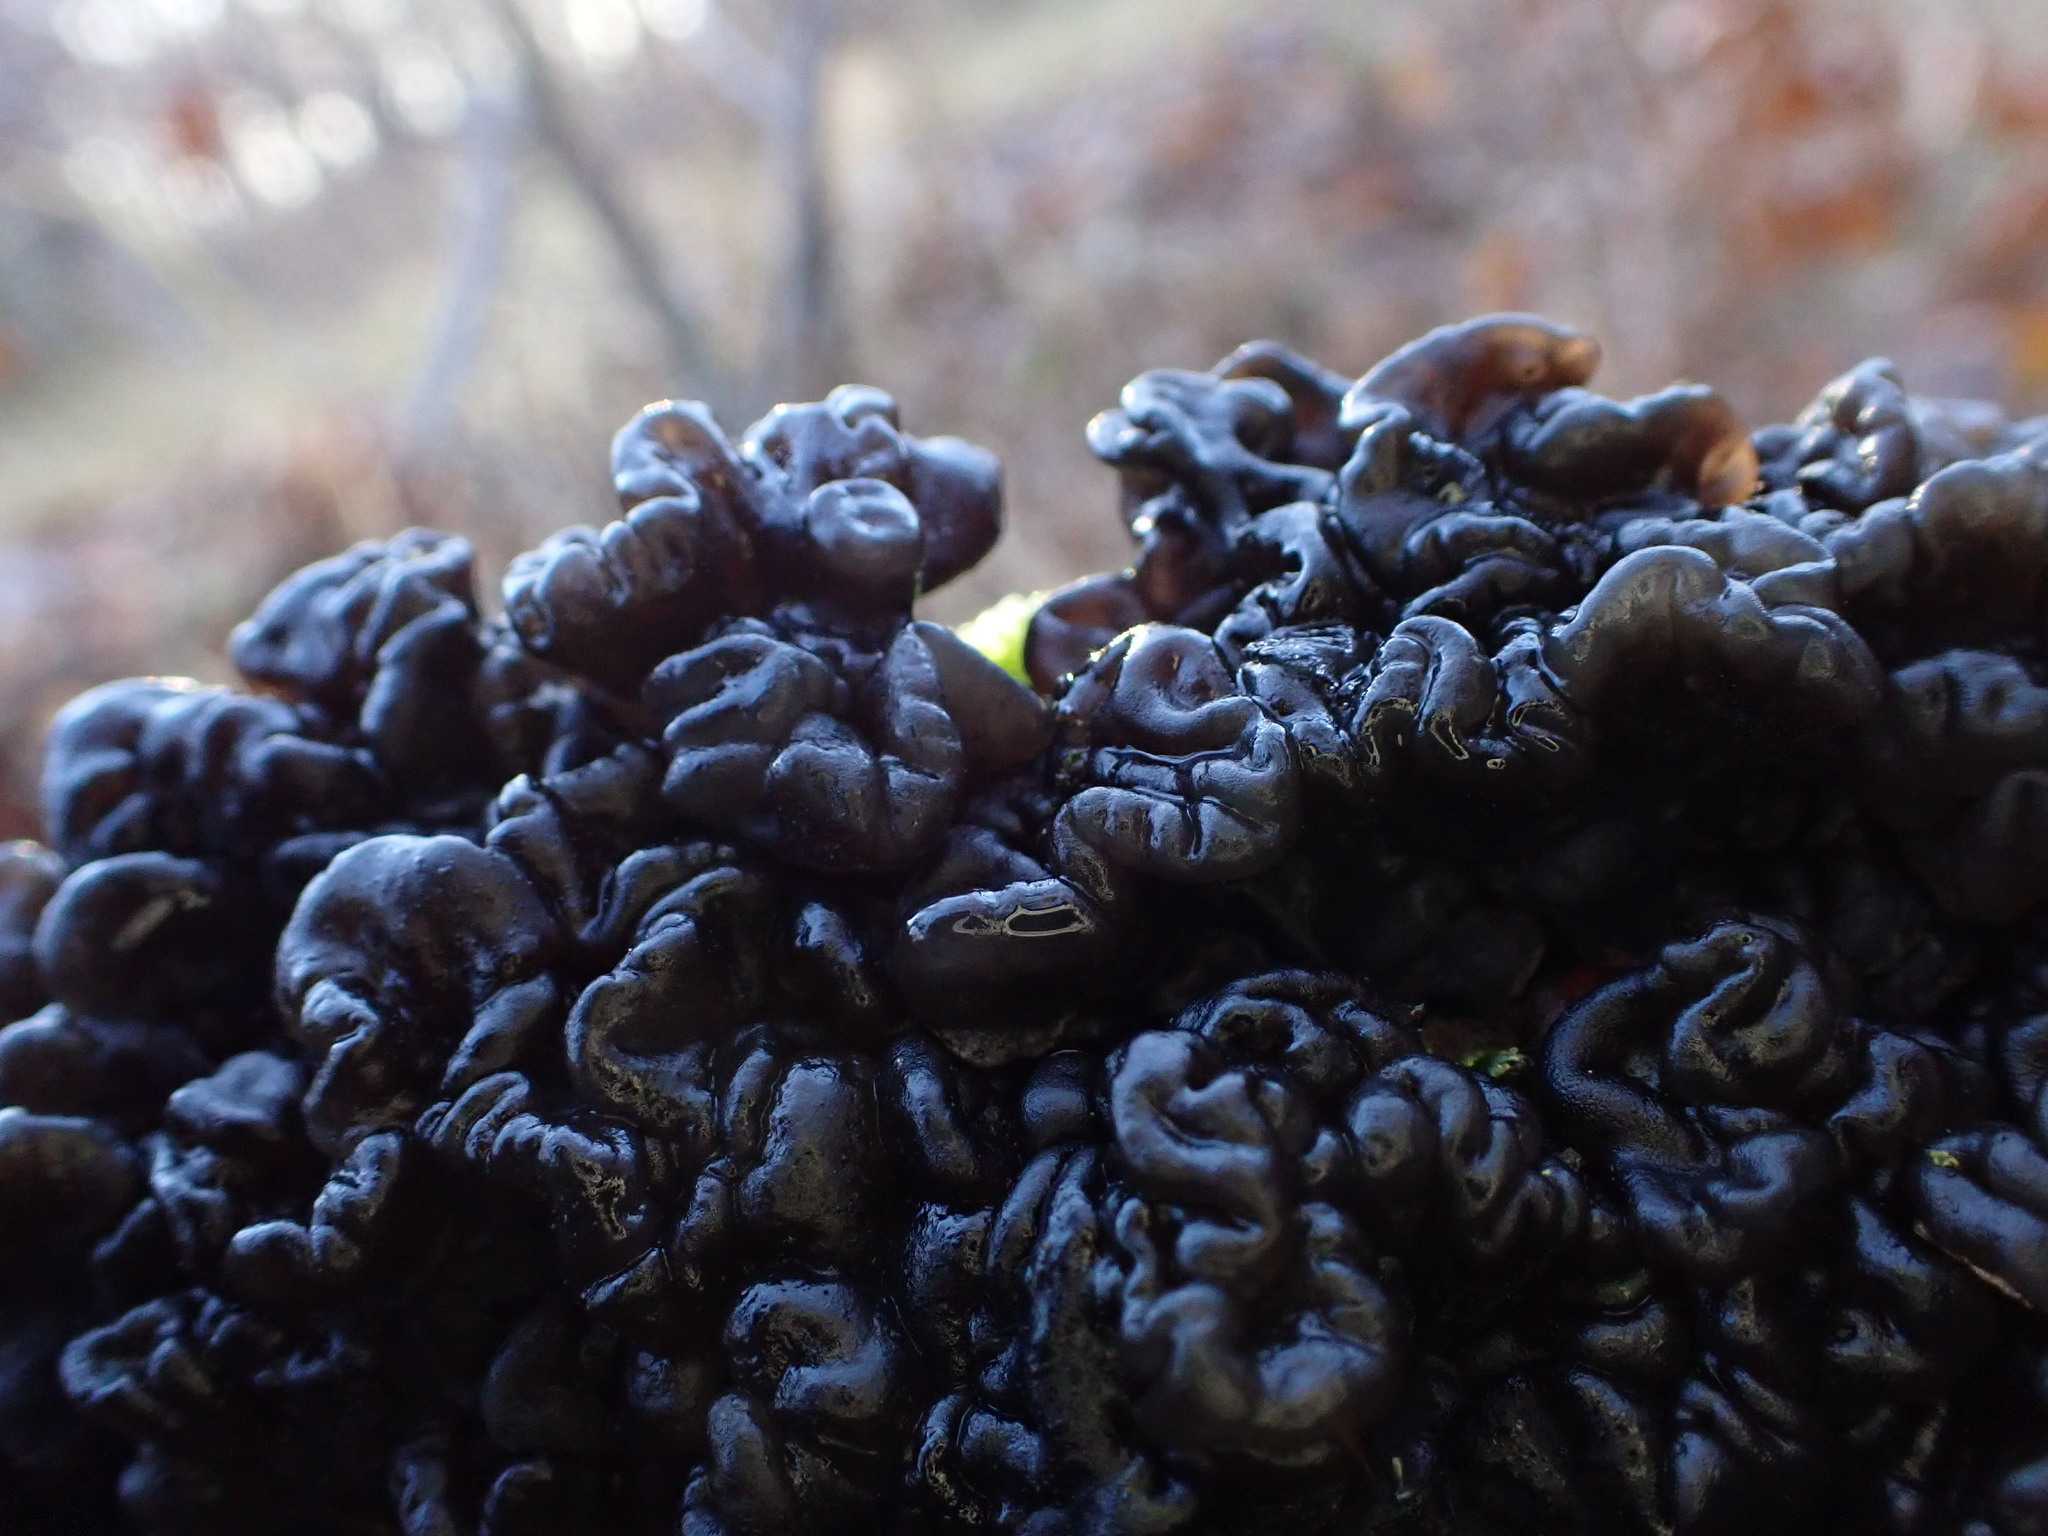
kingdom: Fungi
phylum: Basidiomycota
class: Agaricomycetes
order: Auriculariales
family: Auriculariaceae
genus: Exidia
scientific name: Exidia nigricans
